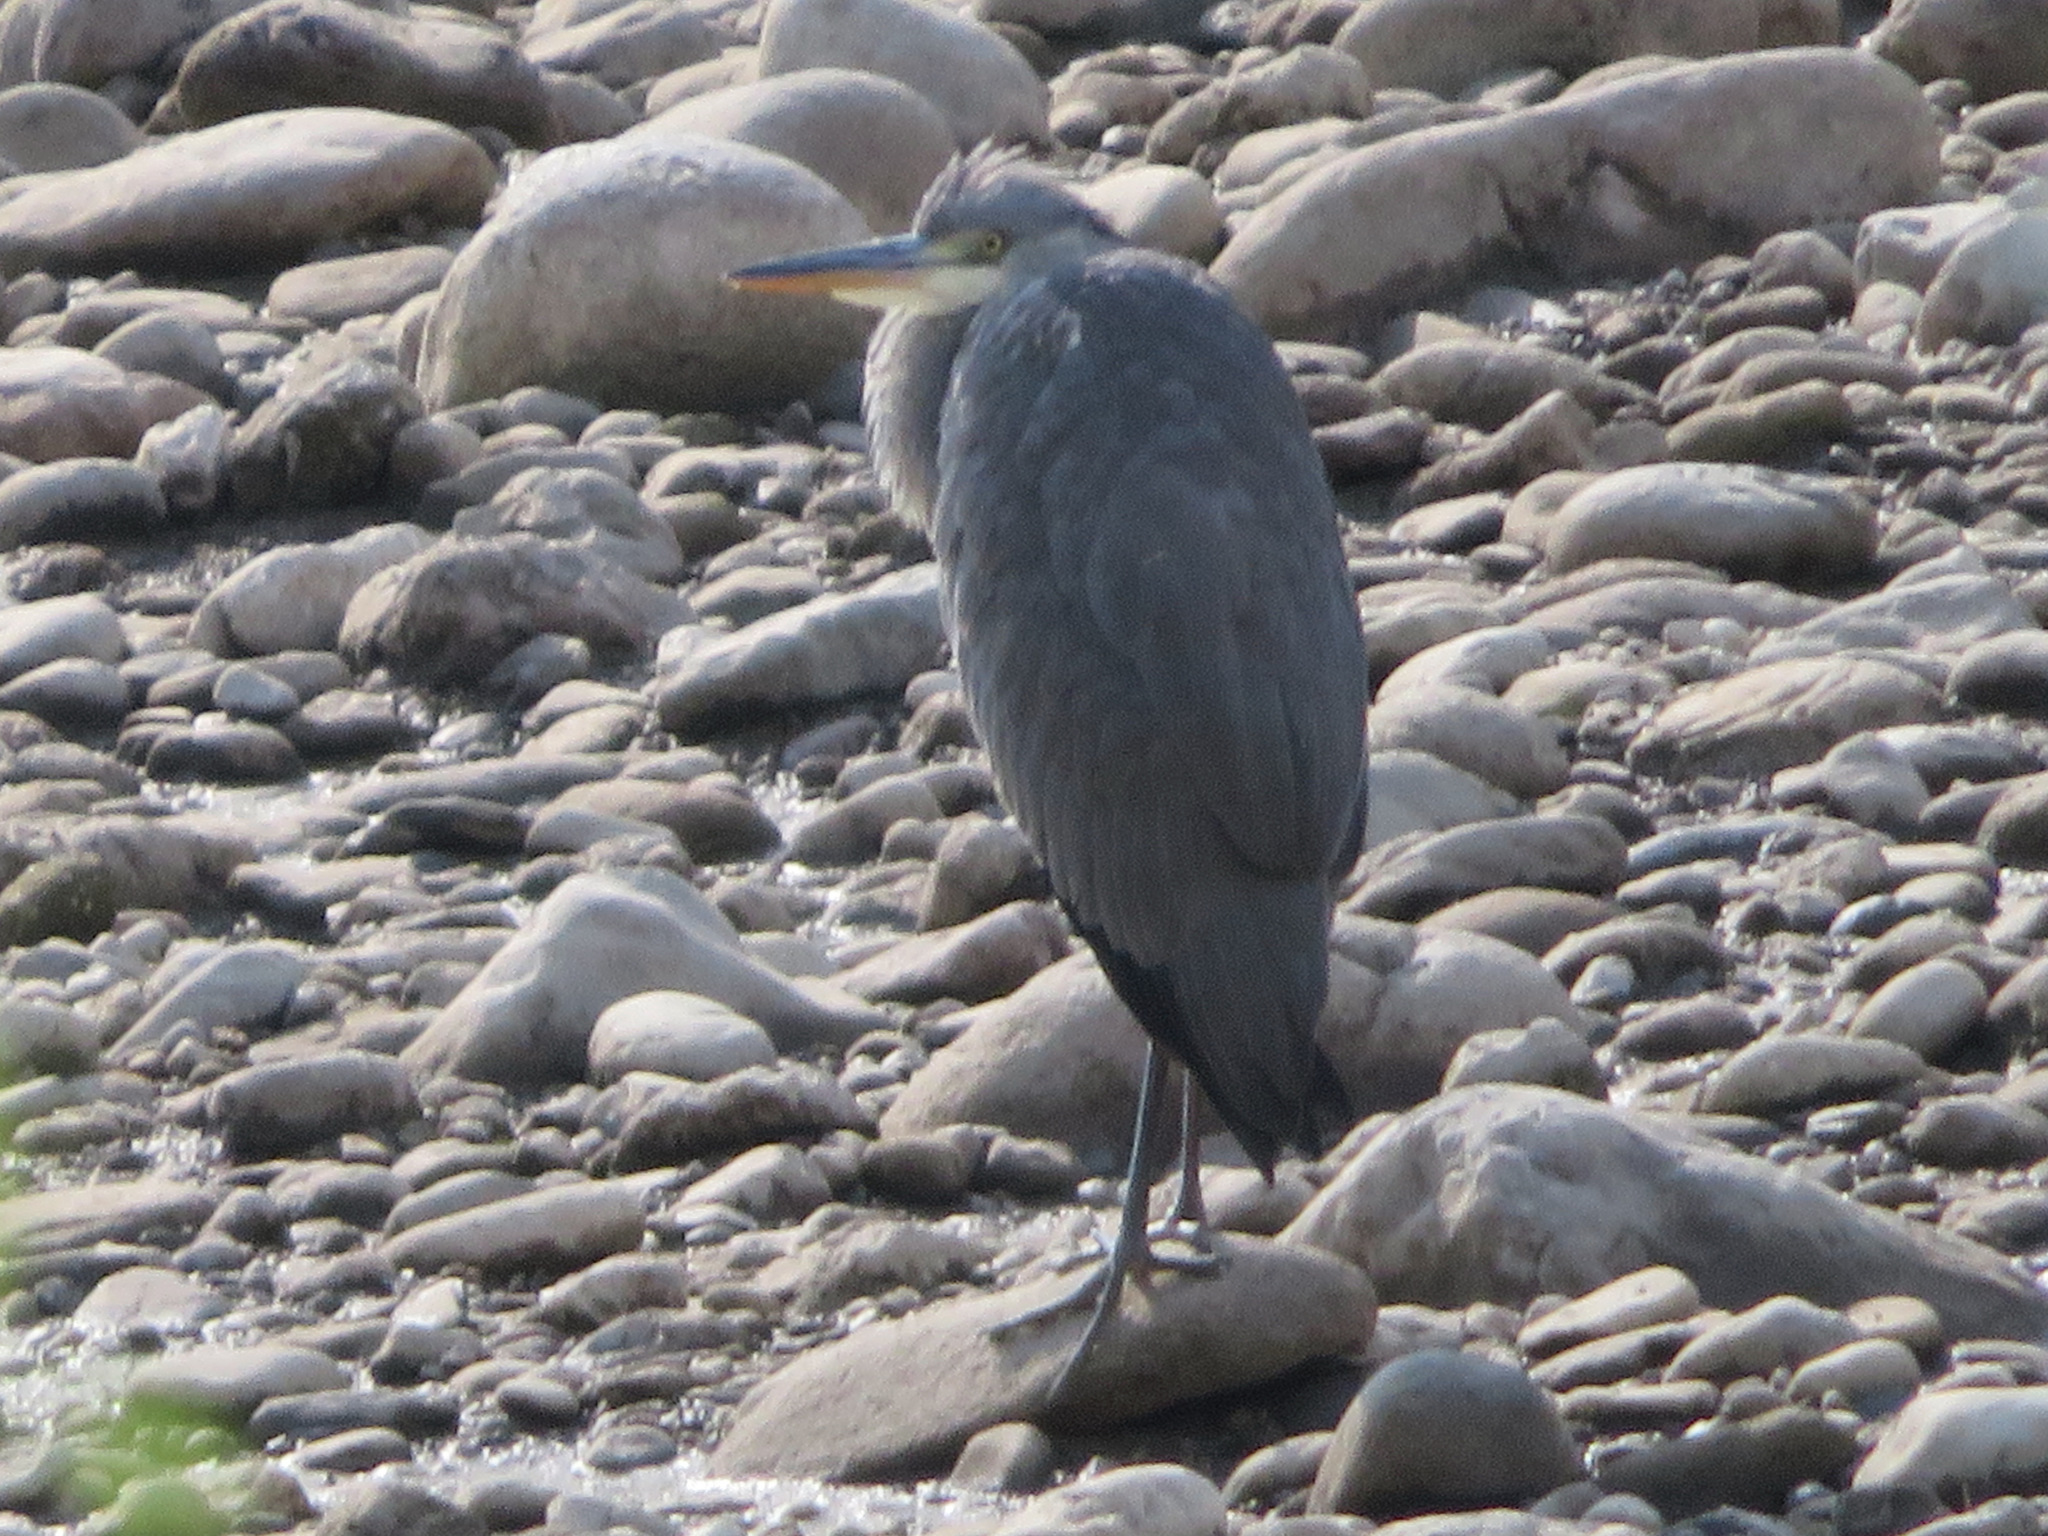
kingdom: Animalia
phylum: Chordata
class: Aves
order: Pelecaniformes
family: Ardeidae
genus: Ardea
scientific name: Ardea cinerea
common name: Grey heron
